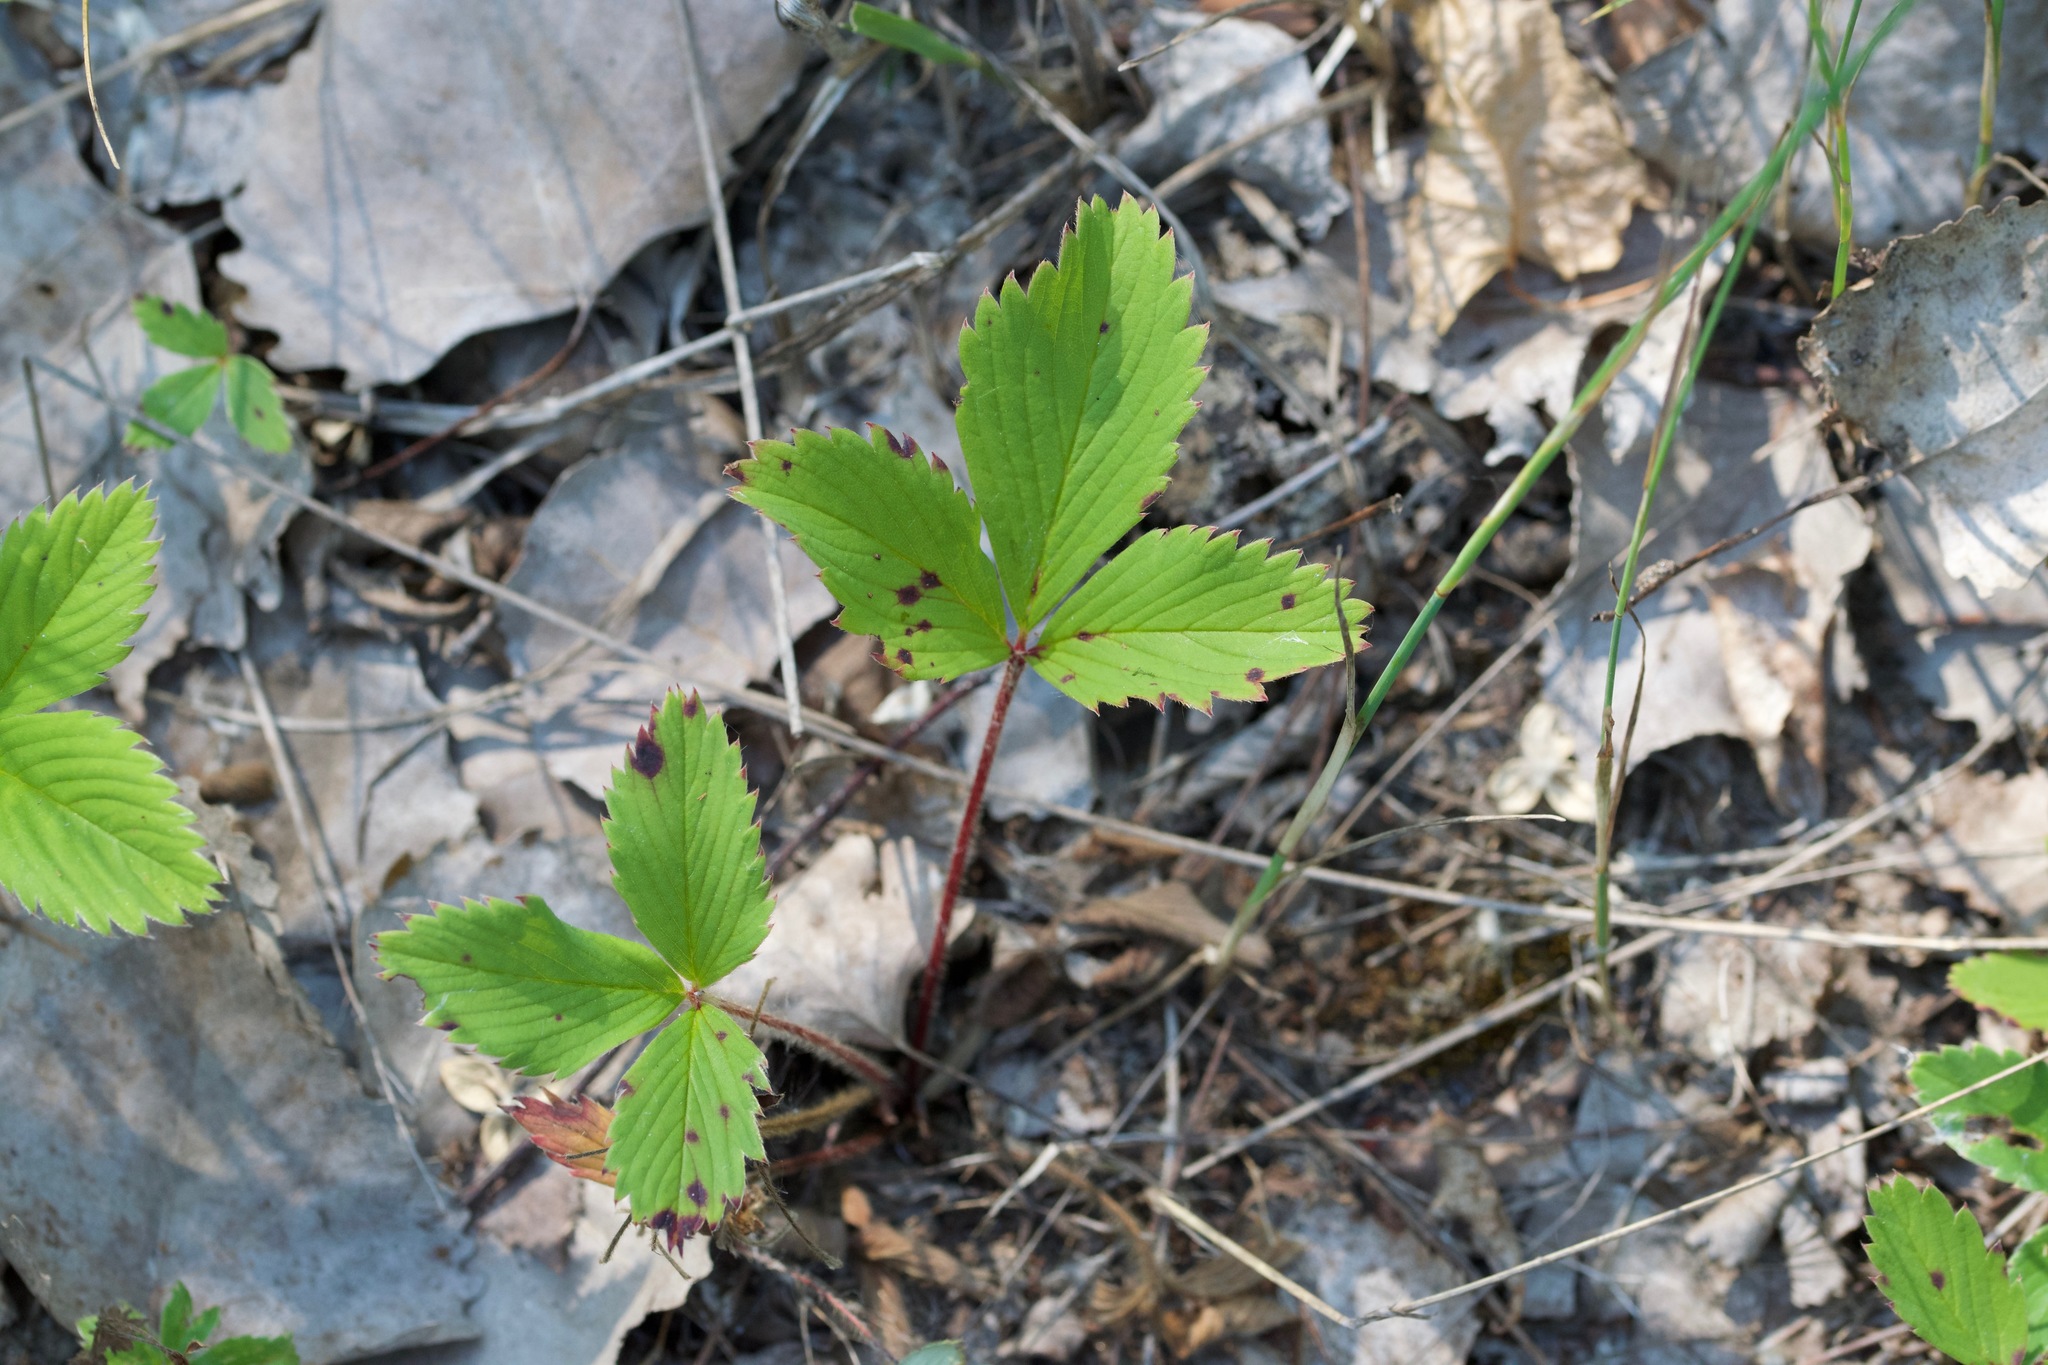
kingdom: Plantae
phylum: Tracheophyta
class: Magnoliopsida
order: Rosales
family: Rosaceae
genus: Fragaria
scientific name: Fragaria virginiana
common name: Thickleaved wild strawberry
